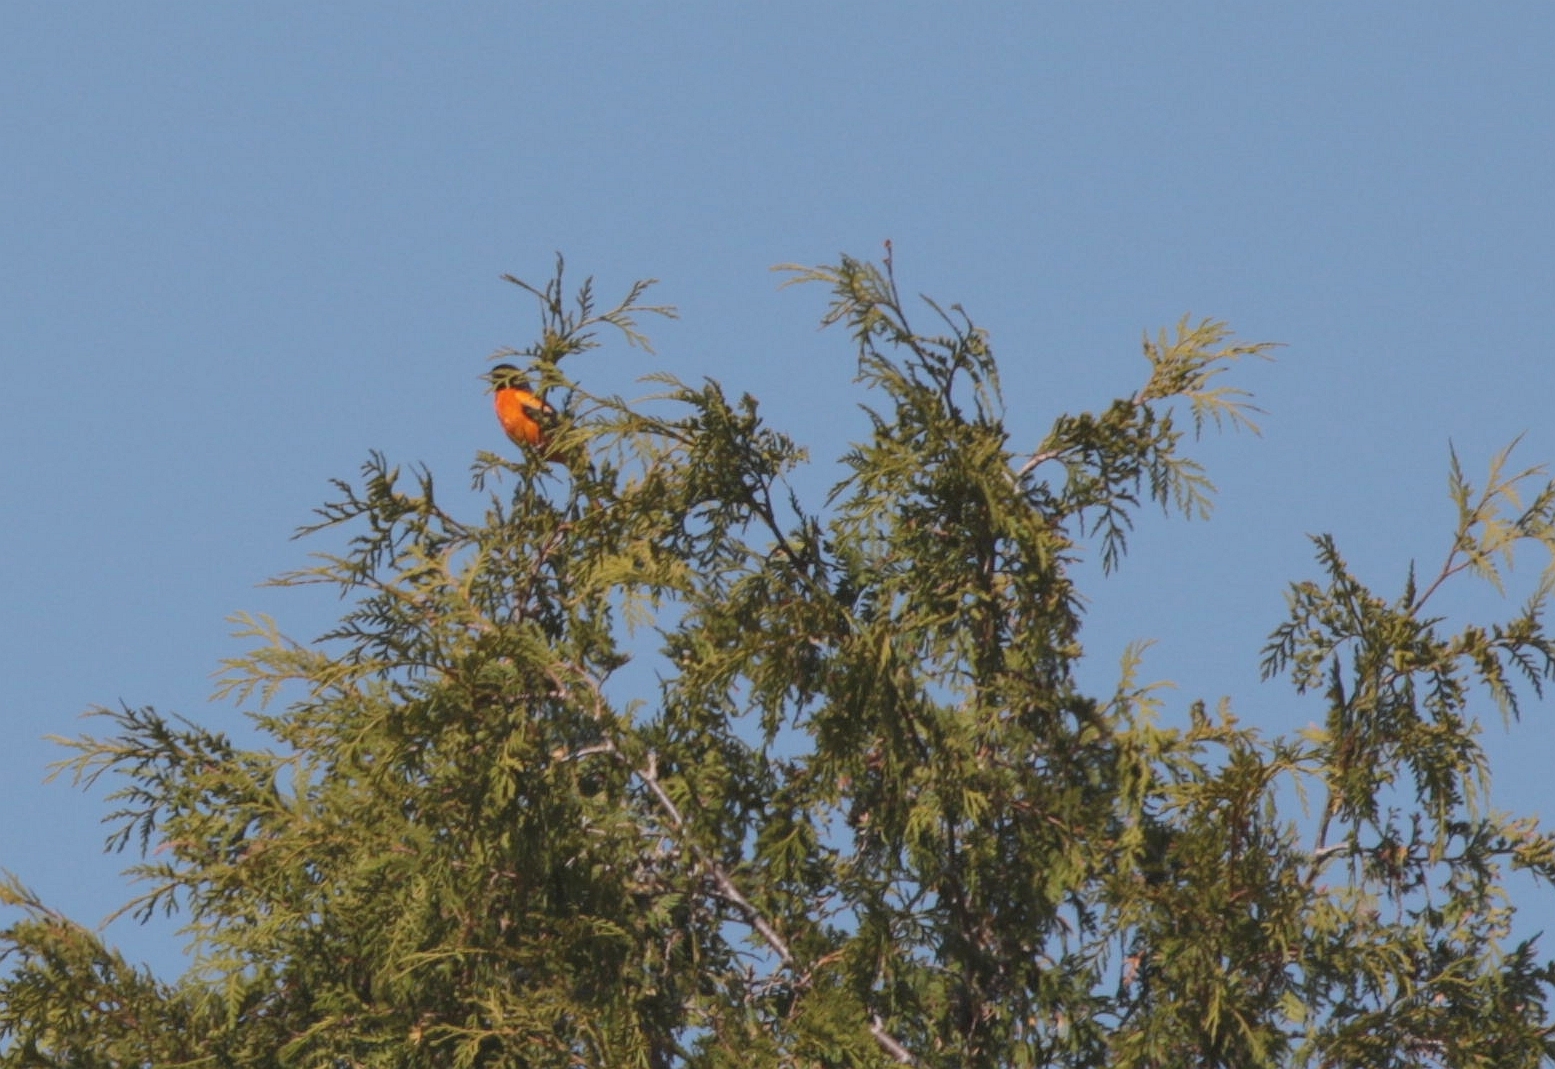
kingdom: Animalia
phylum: Chordata
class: Aves
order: Passeriformes
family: Icteridae
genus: Icterus
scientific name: Icterus galbula
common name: Baltimore oriole
